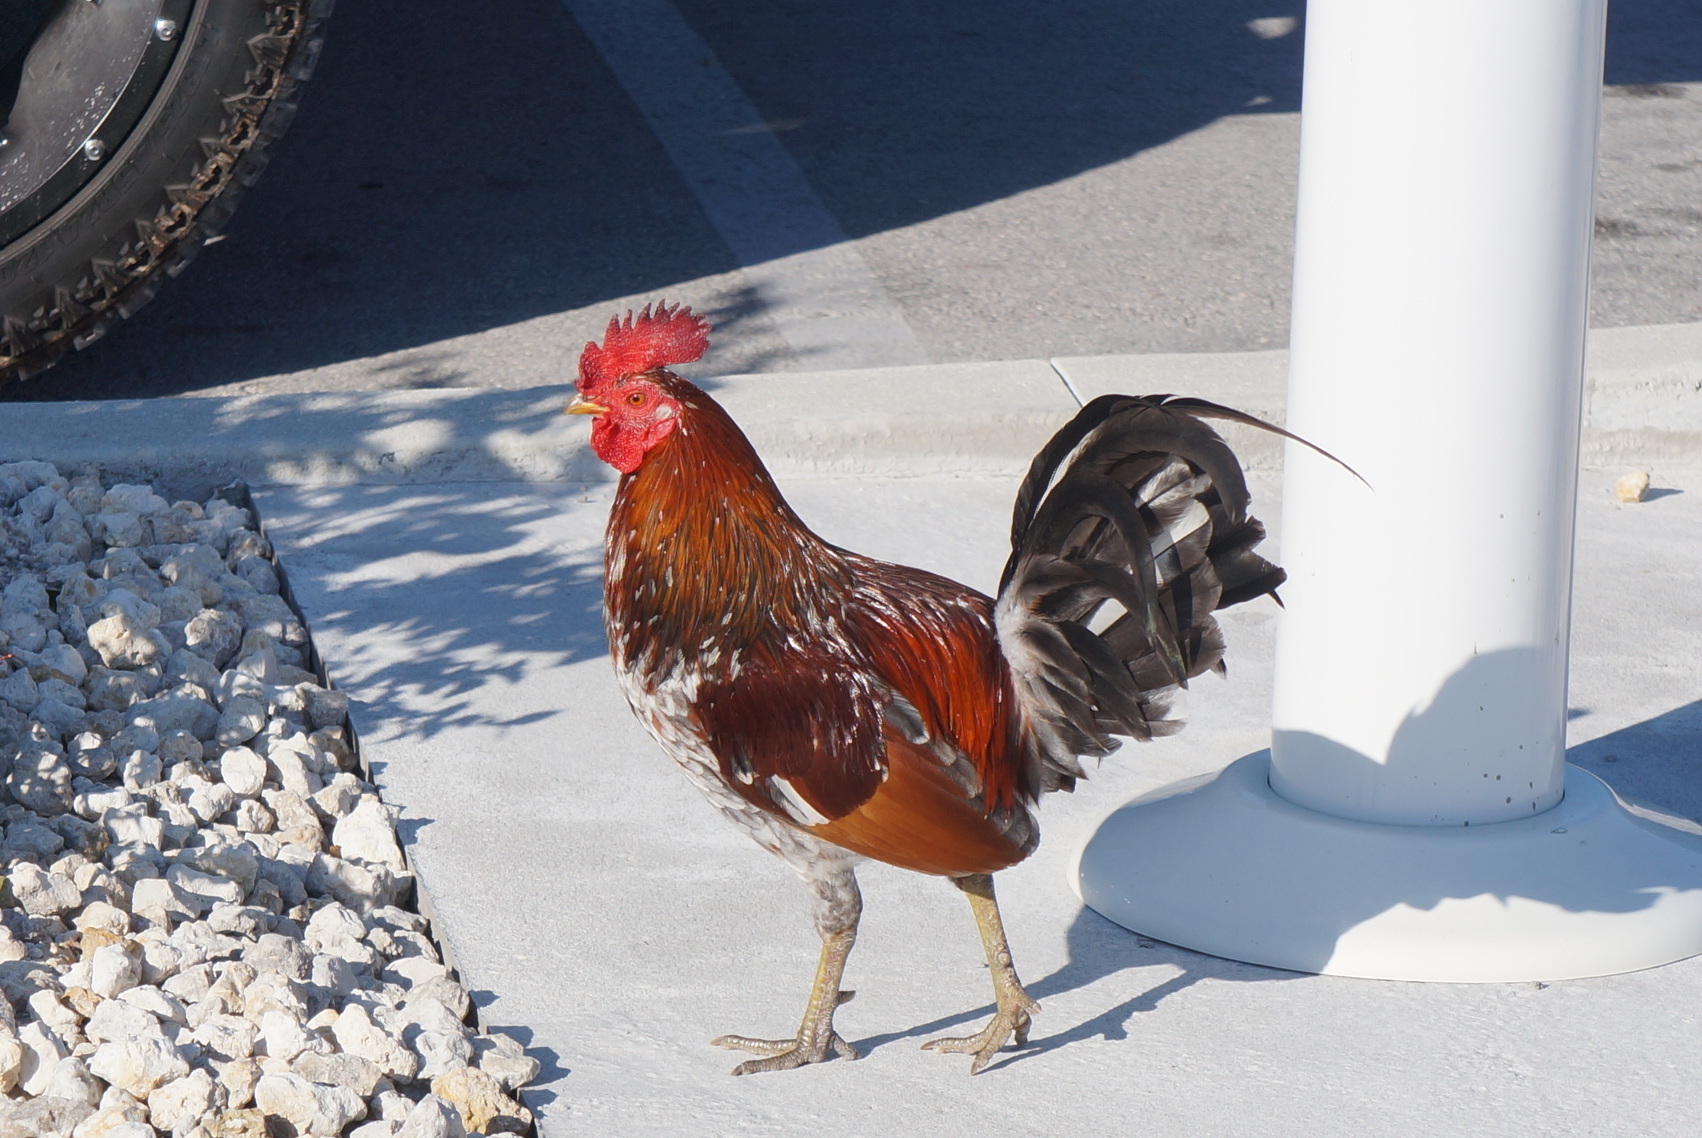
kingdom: Animalia
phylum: Chordata
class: Aves
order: Galliformes
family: Phasianidae
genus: Gallus
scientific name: Gallus gallus
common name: Red junglefowl
